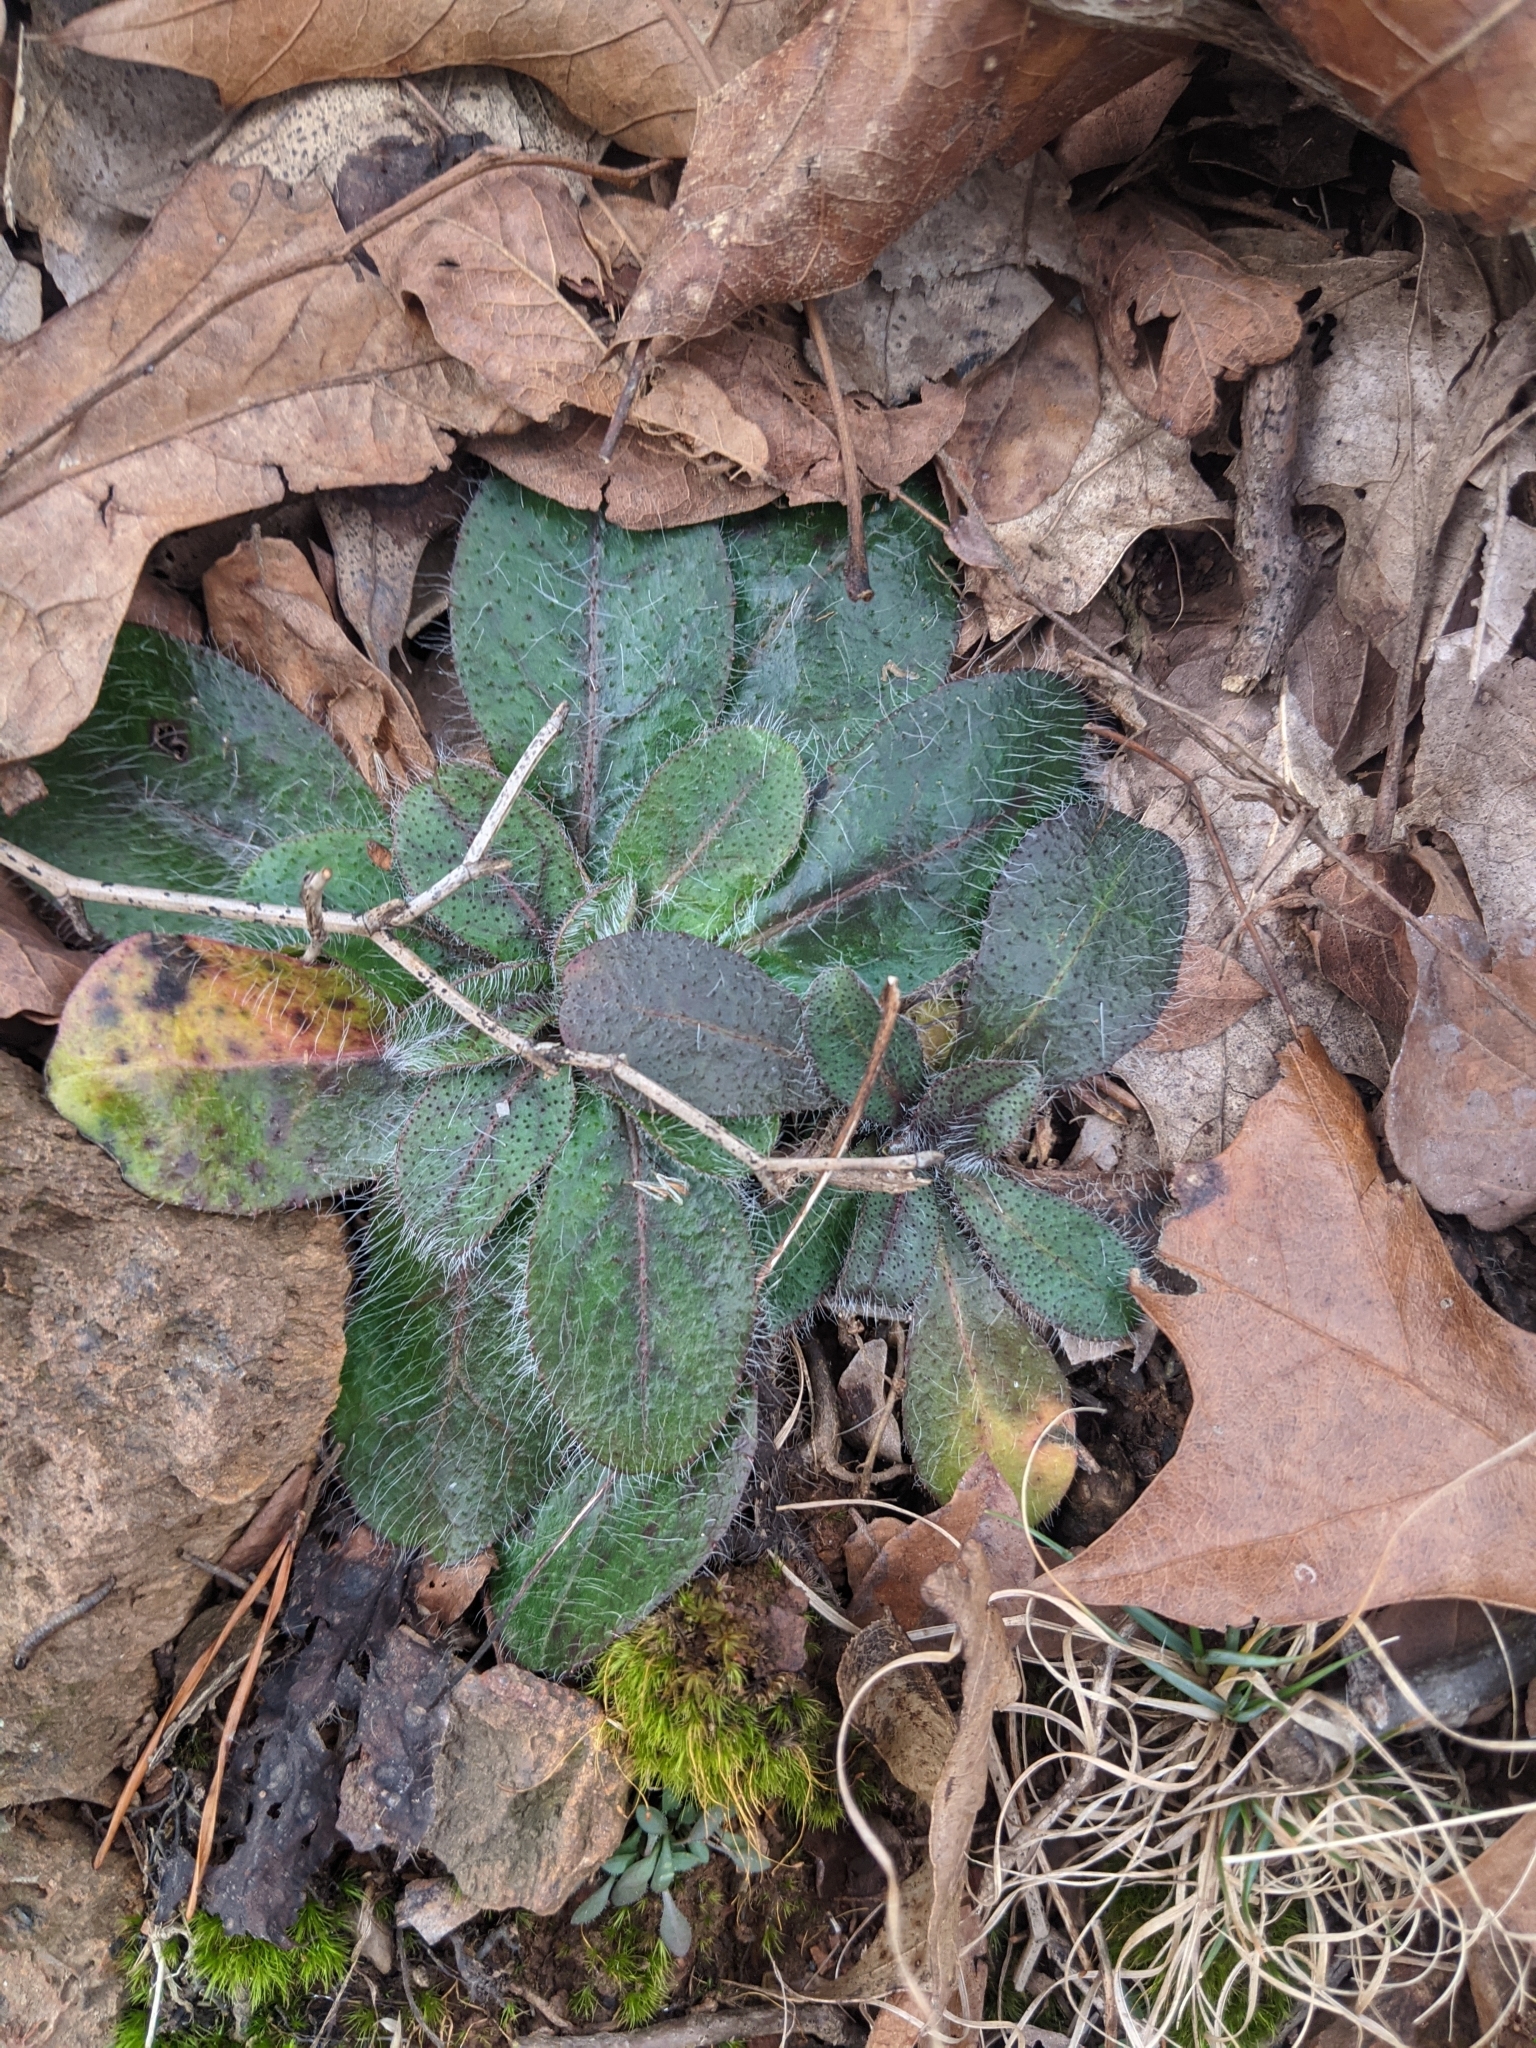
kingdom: Plantae
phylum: Tracheophyta
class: Magnoliopsida
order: Asterales
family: Asteraceae
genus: Hieracium
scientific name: Hieracium venosum
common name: Rattlesnake hawkweed
